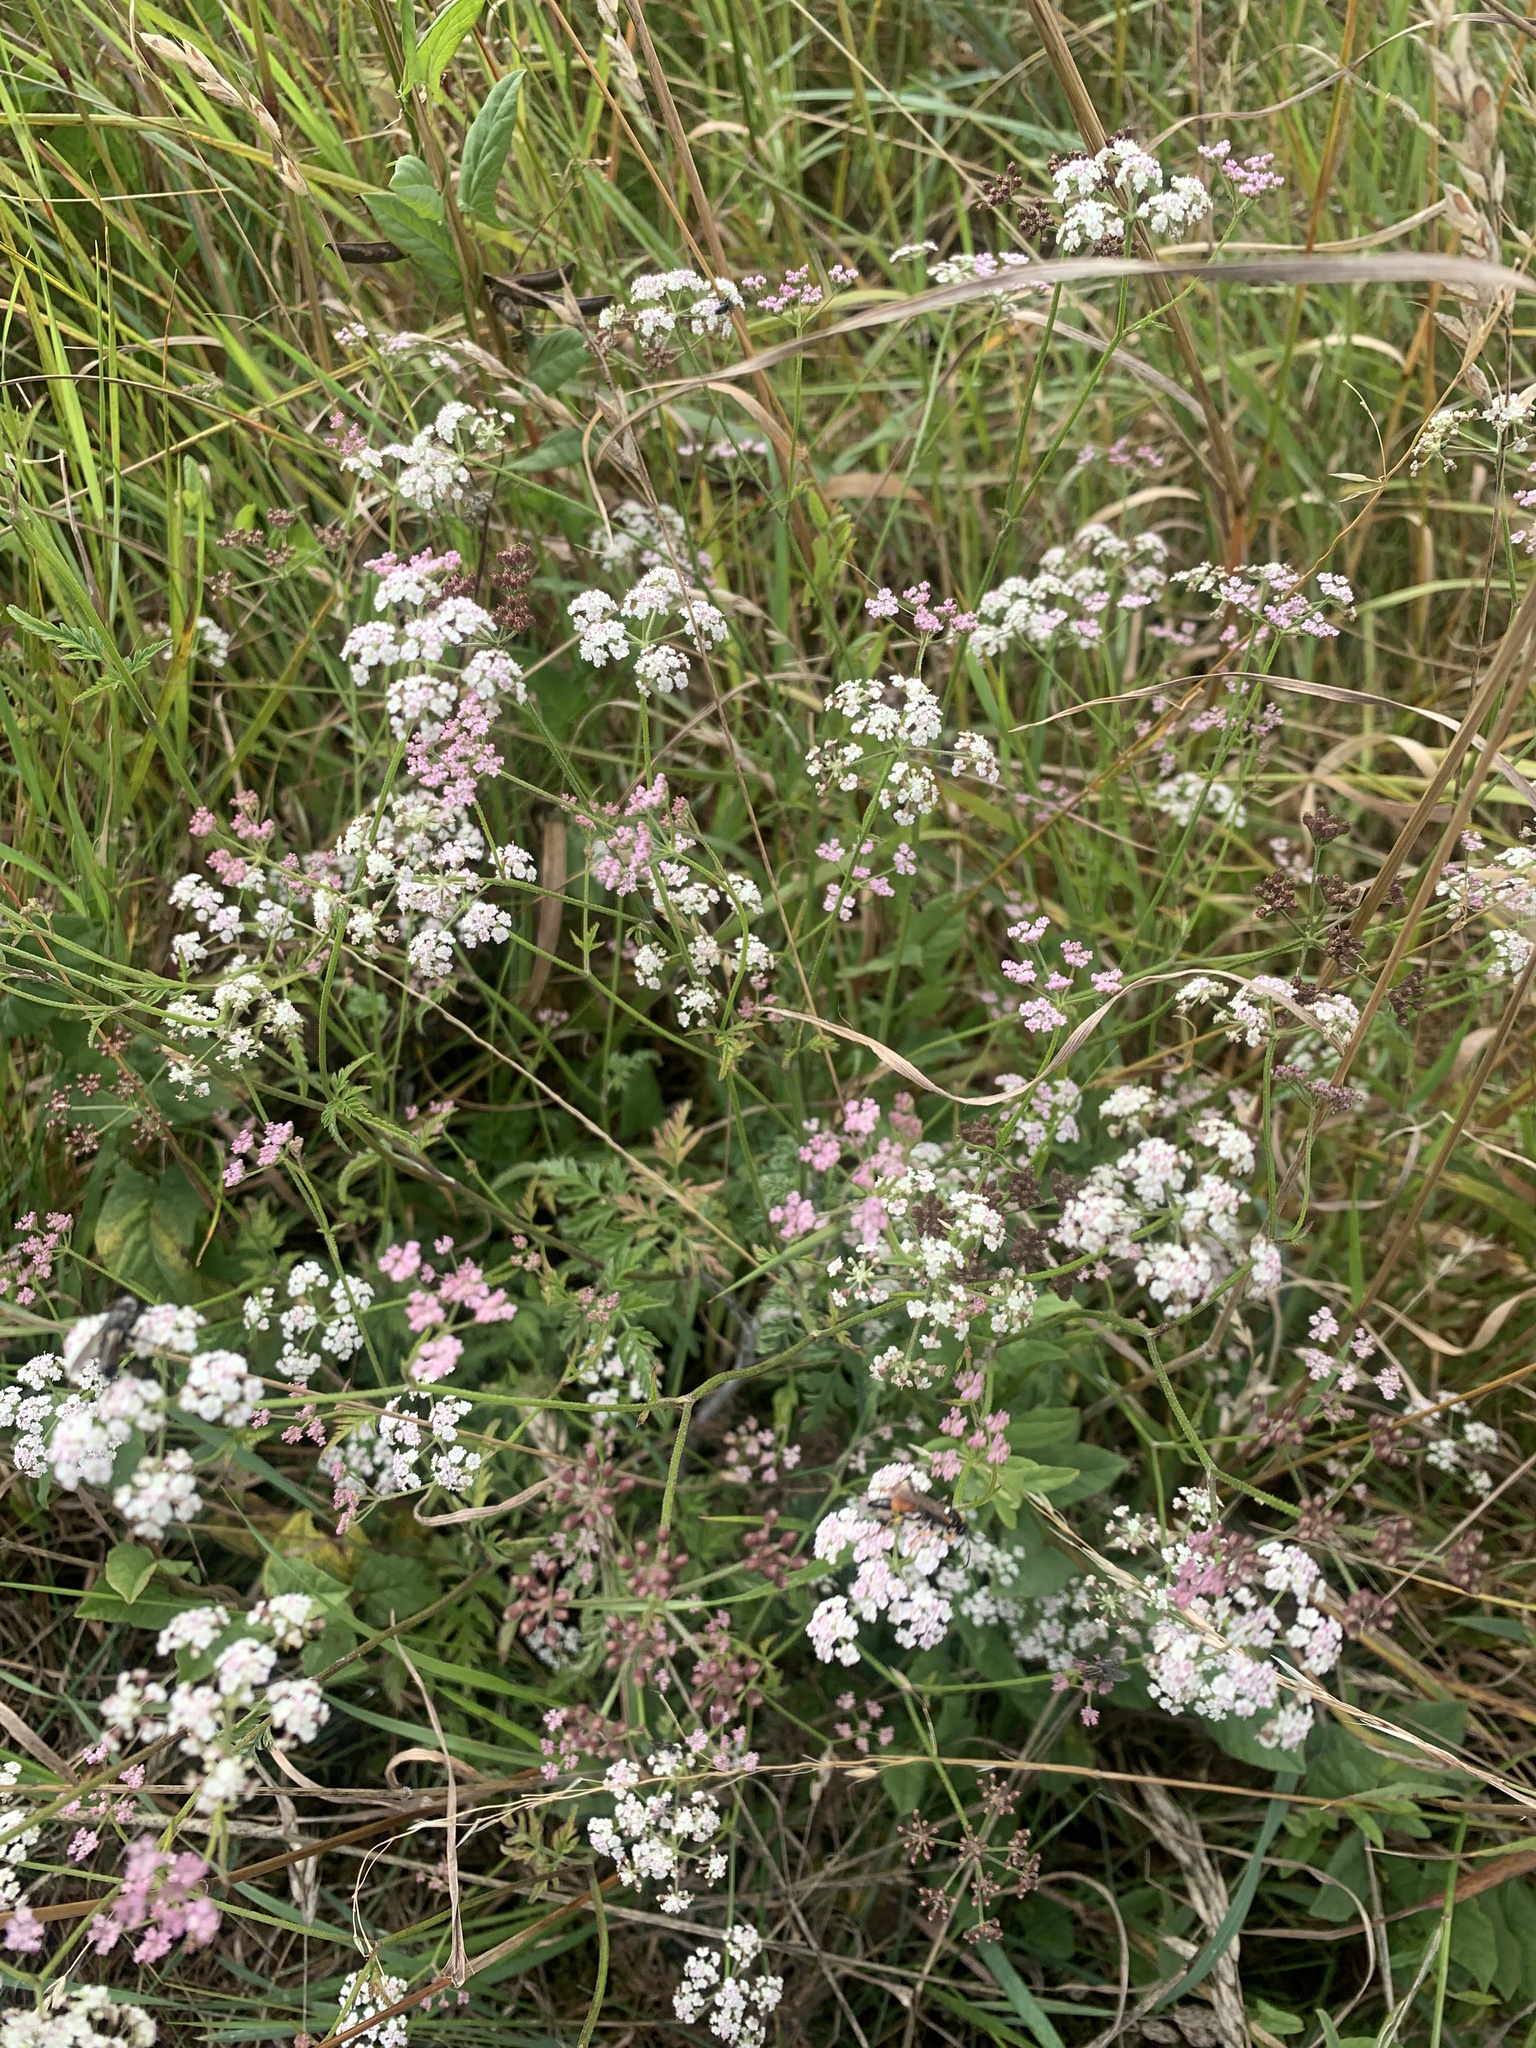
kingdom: Plantae
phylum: Tracheophyta
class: Magnoliopsida
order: Apiales
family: Apiaceae
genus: Torilis
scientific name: Torilis japonica
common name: Upright hedge-parsley
